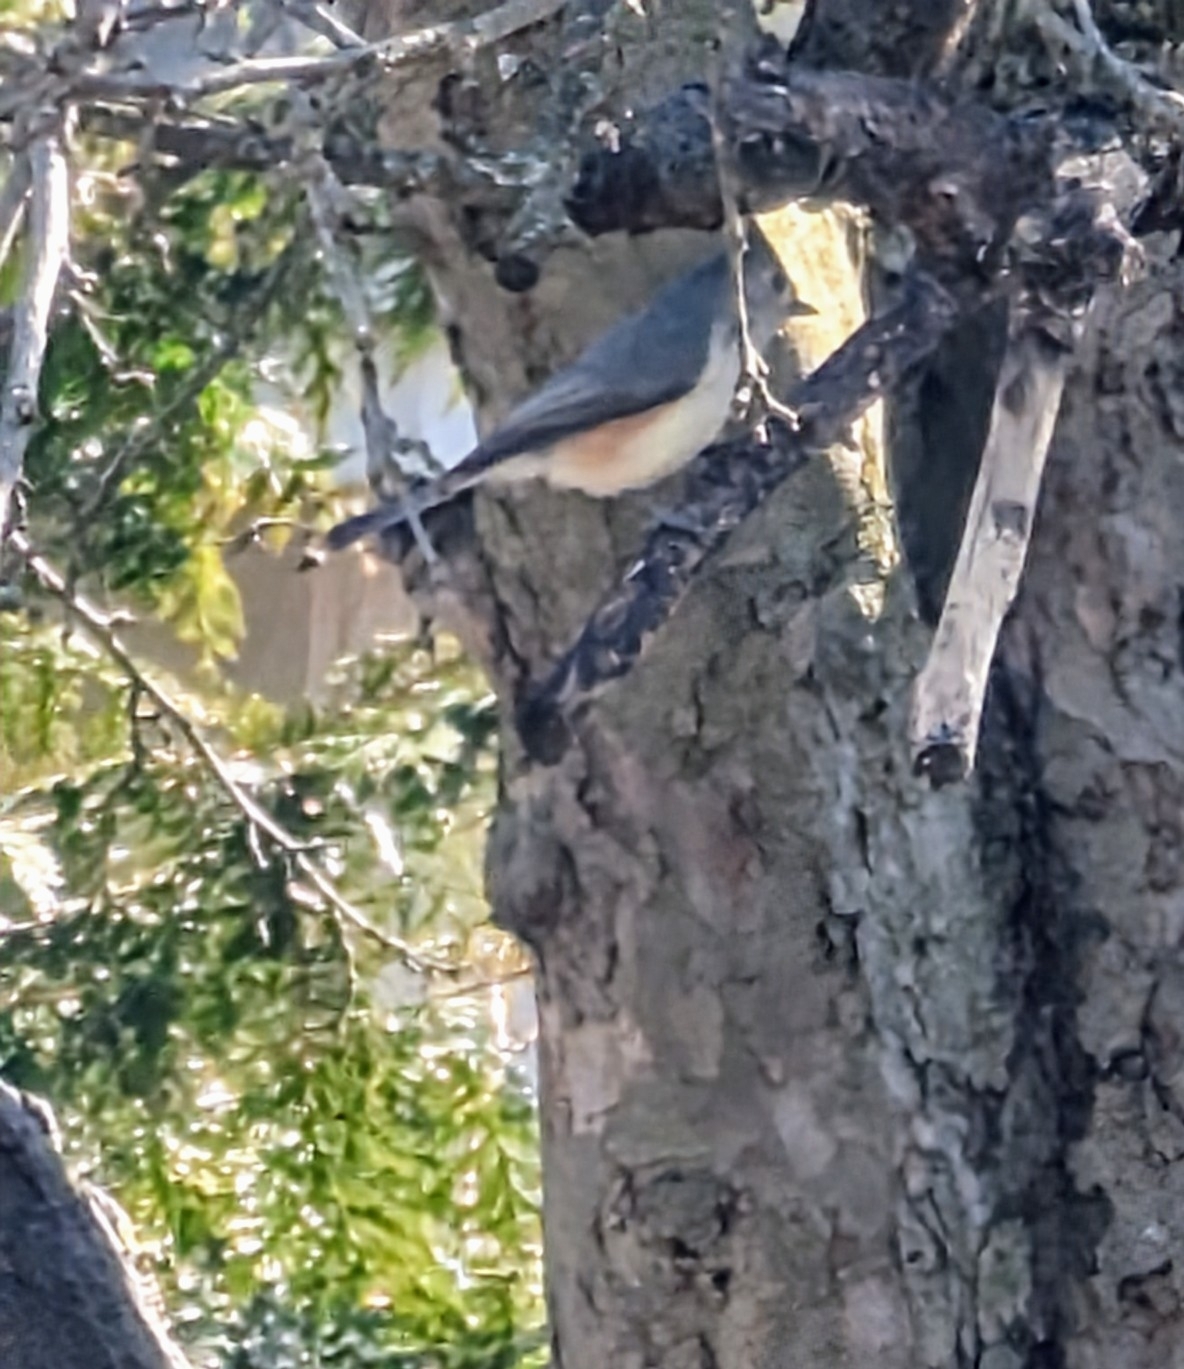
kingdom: Animalia
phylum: Chordata
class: Aves
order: Passeriformes
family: Paridae
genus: Baeolophus
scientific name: Baeolophus bicolor
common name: Tufted titmouse
